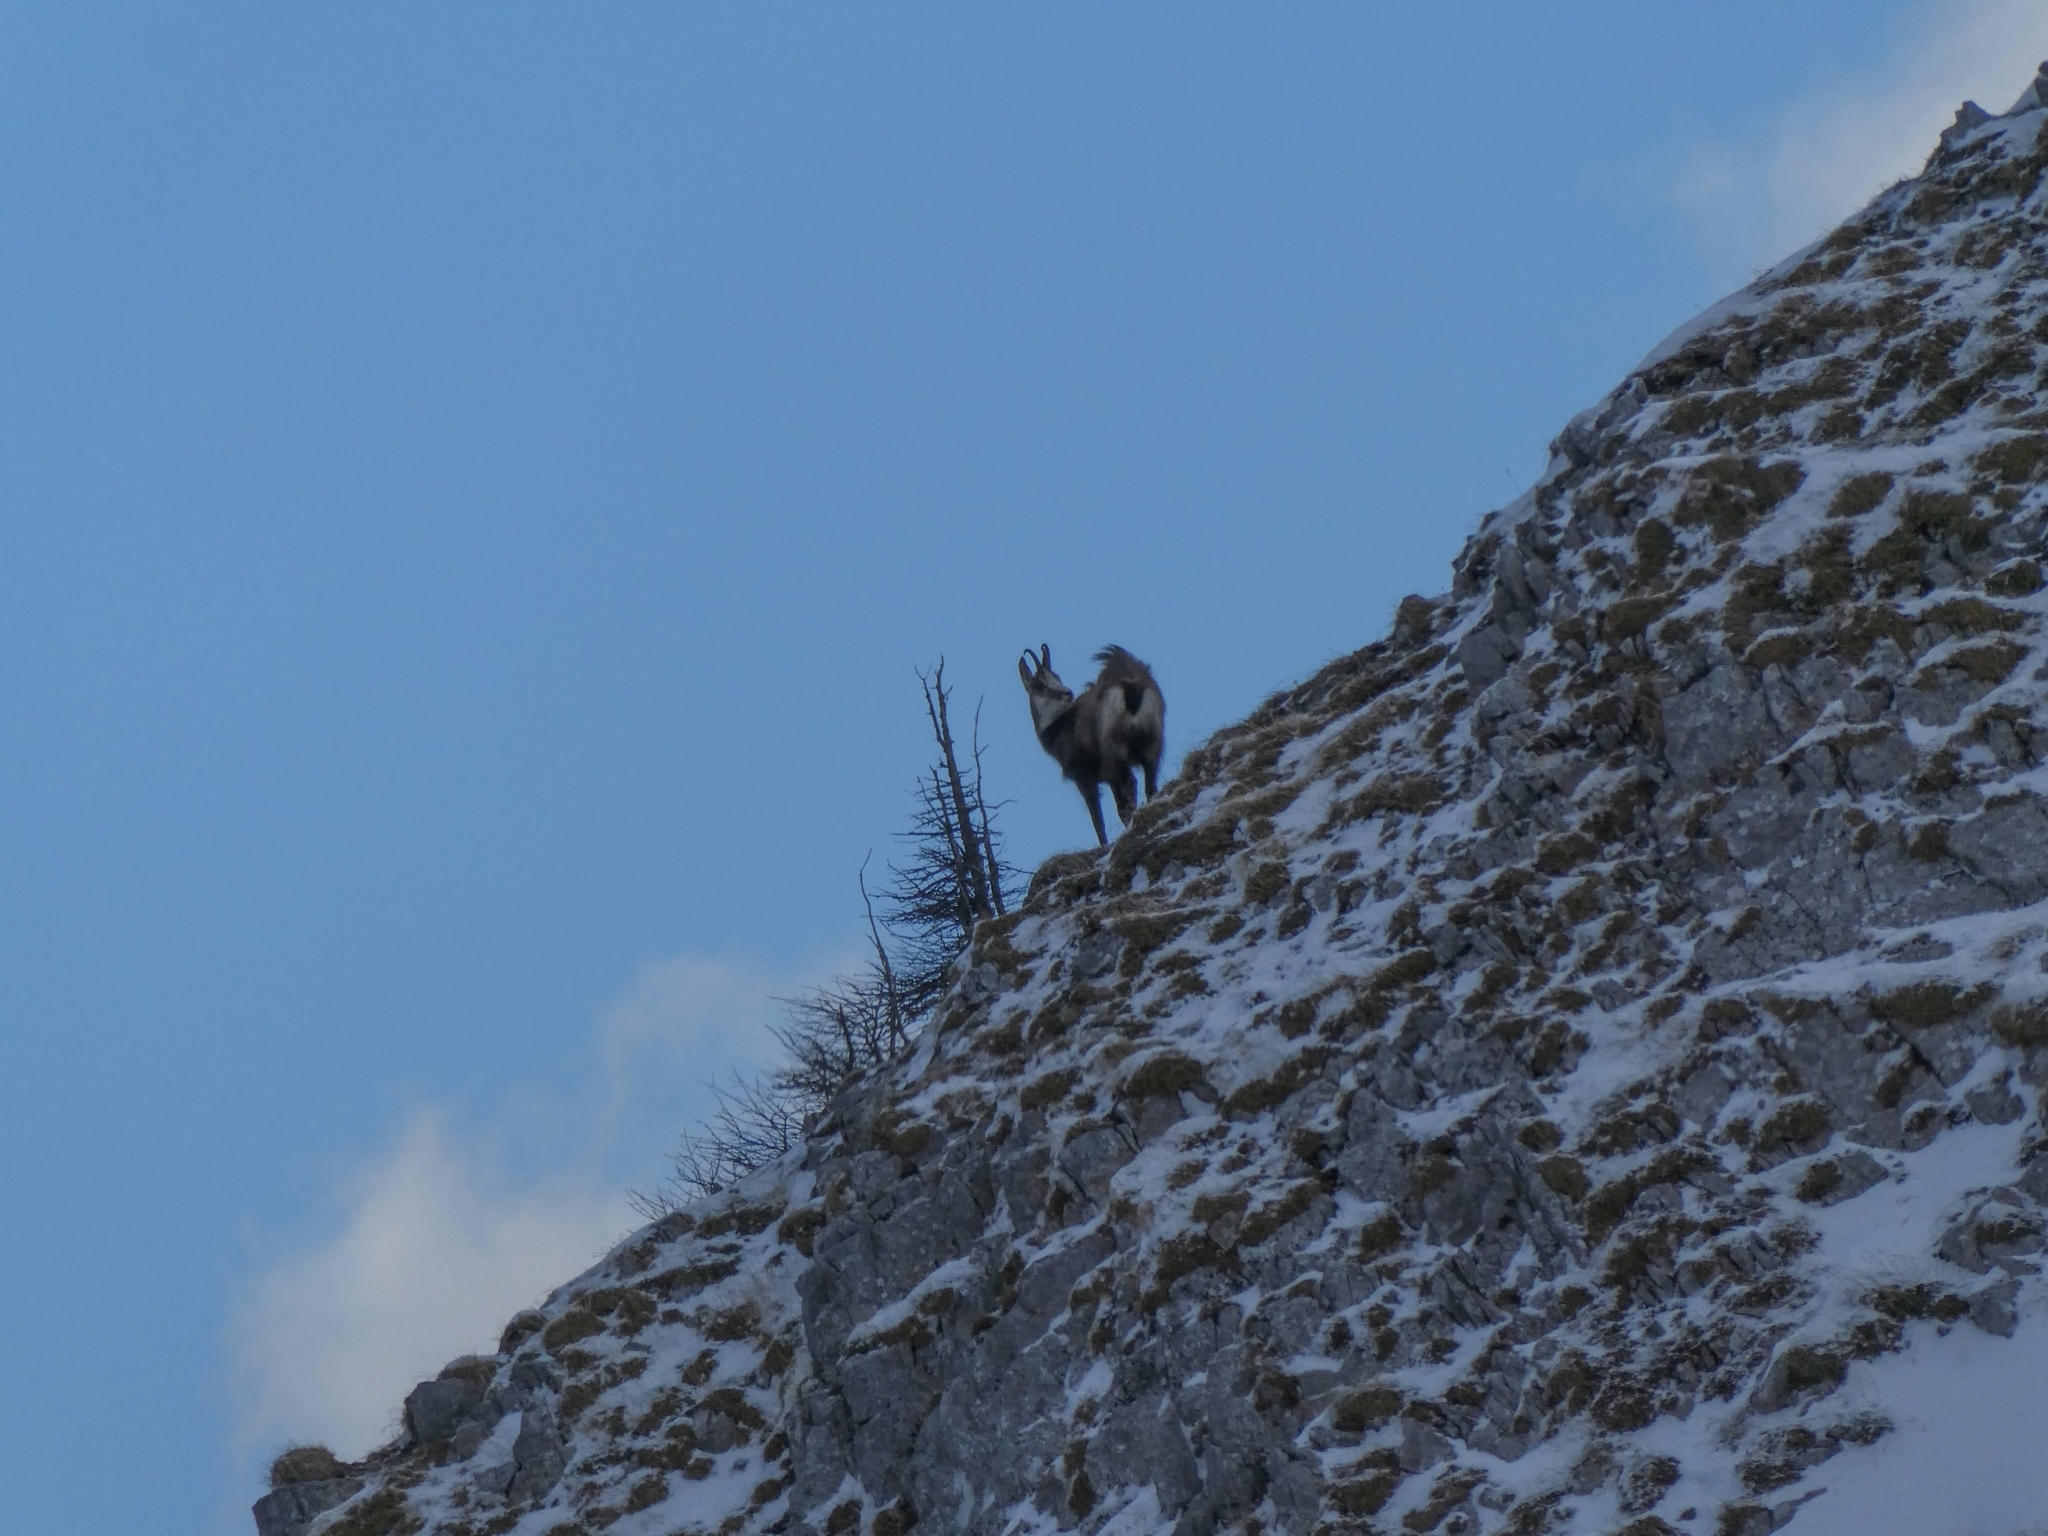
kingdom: Animalia
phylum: Chordata
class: Mammalia
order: Artiodactyla
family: Bovidae
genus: Rupicapra
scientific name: Rupicapra rupicapra
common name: Chamois
